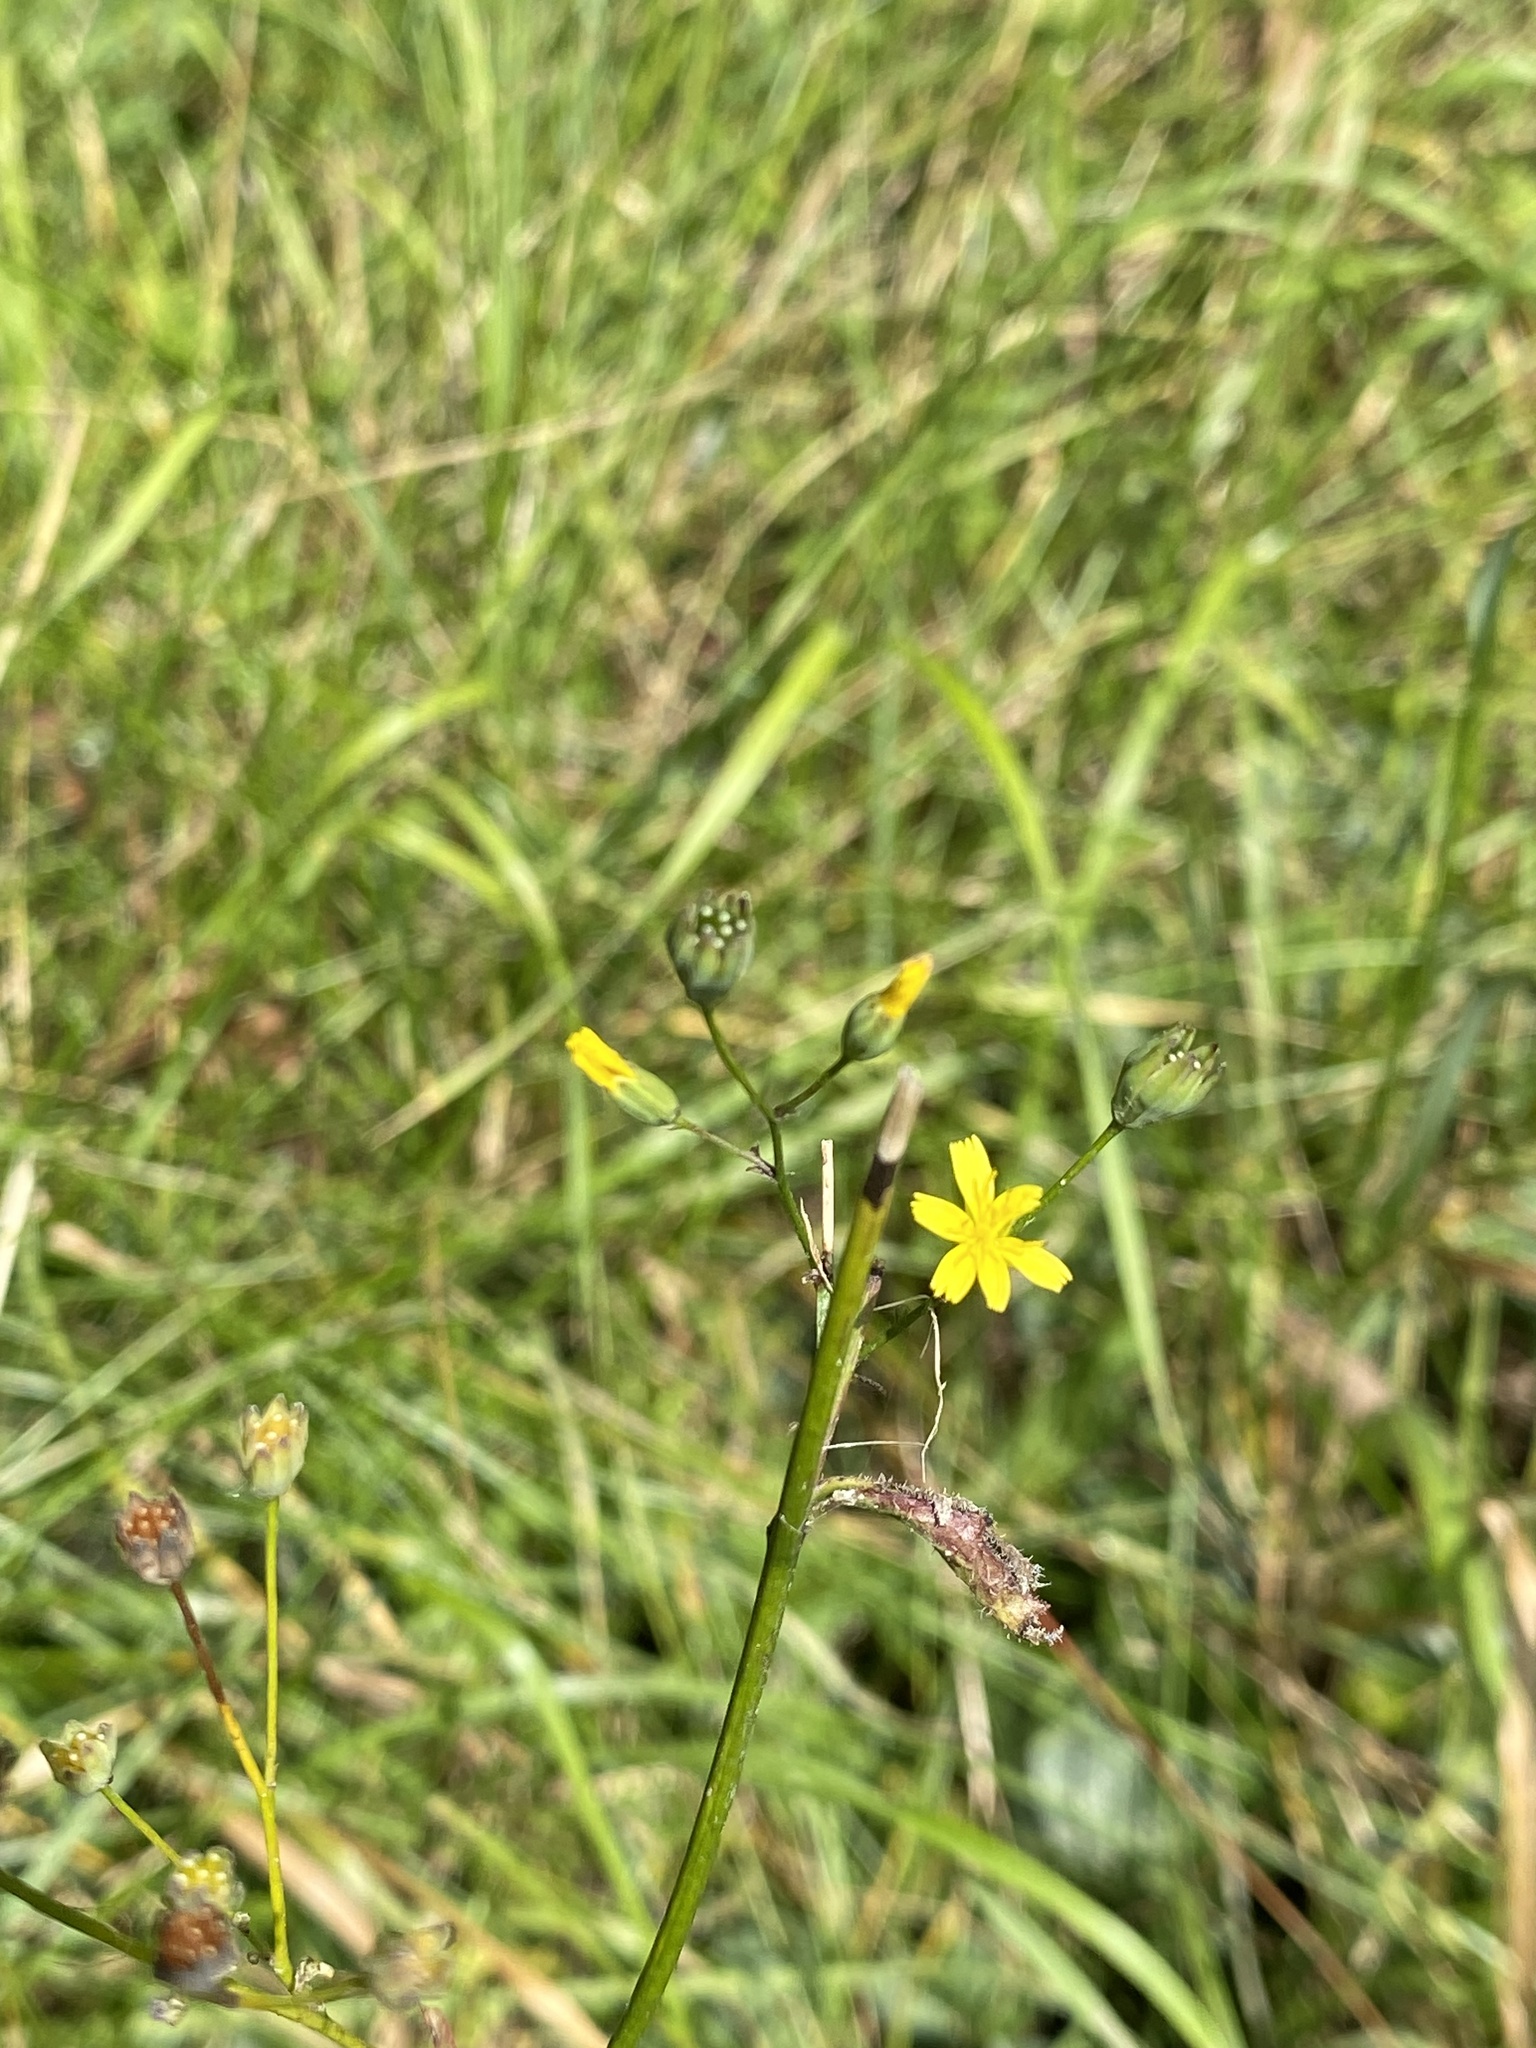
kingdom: Plantae
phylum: Tracheophyta
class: Magnoliopsida
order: Asterales
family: Asteraceae
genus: Lapsana
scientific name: Lapsana communis
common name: Nipplewort
